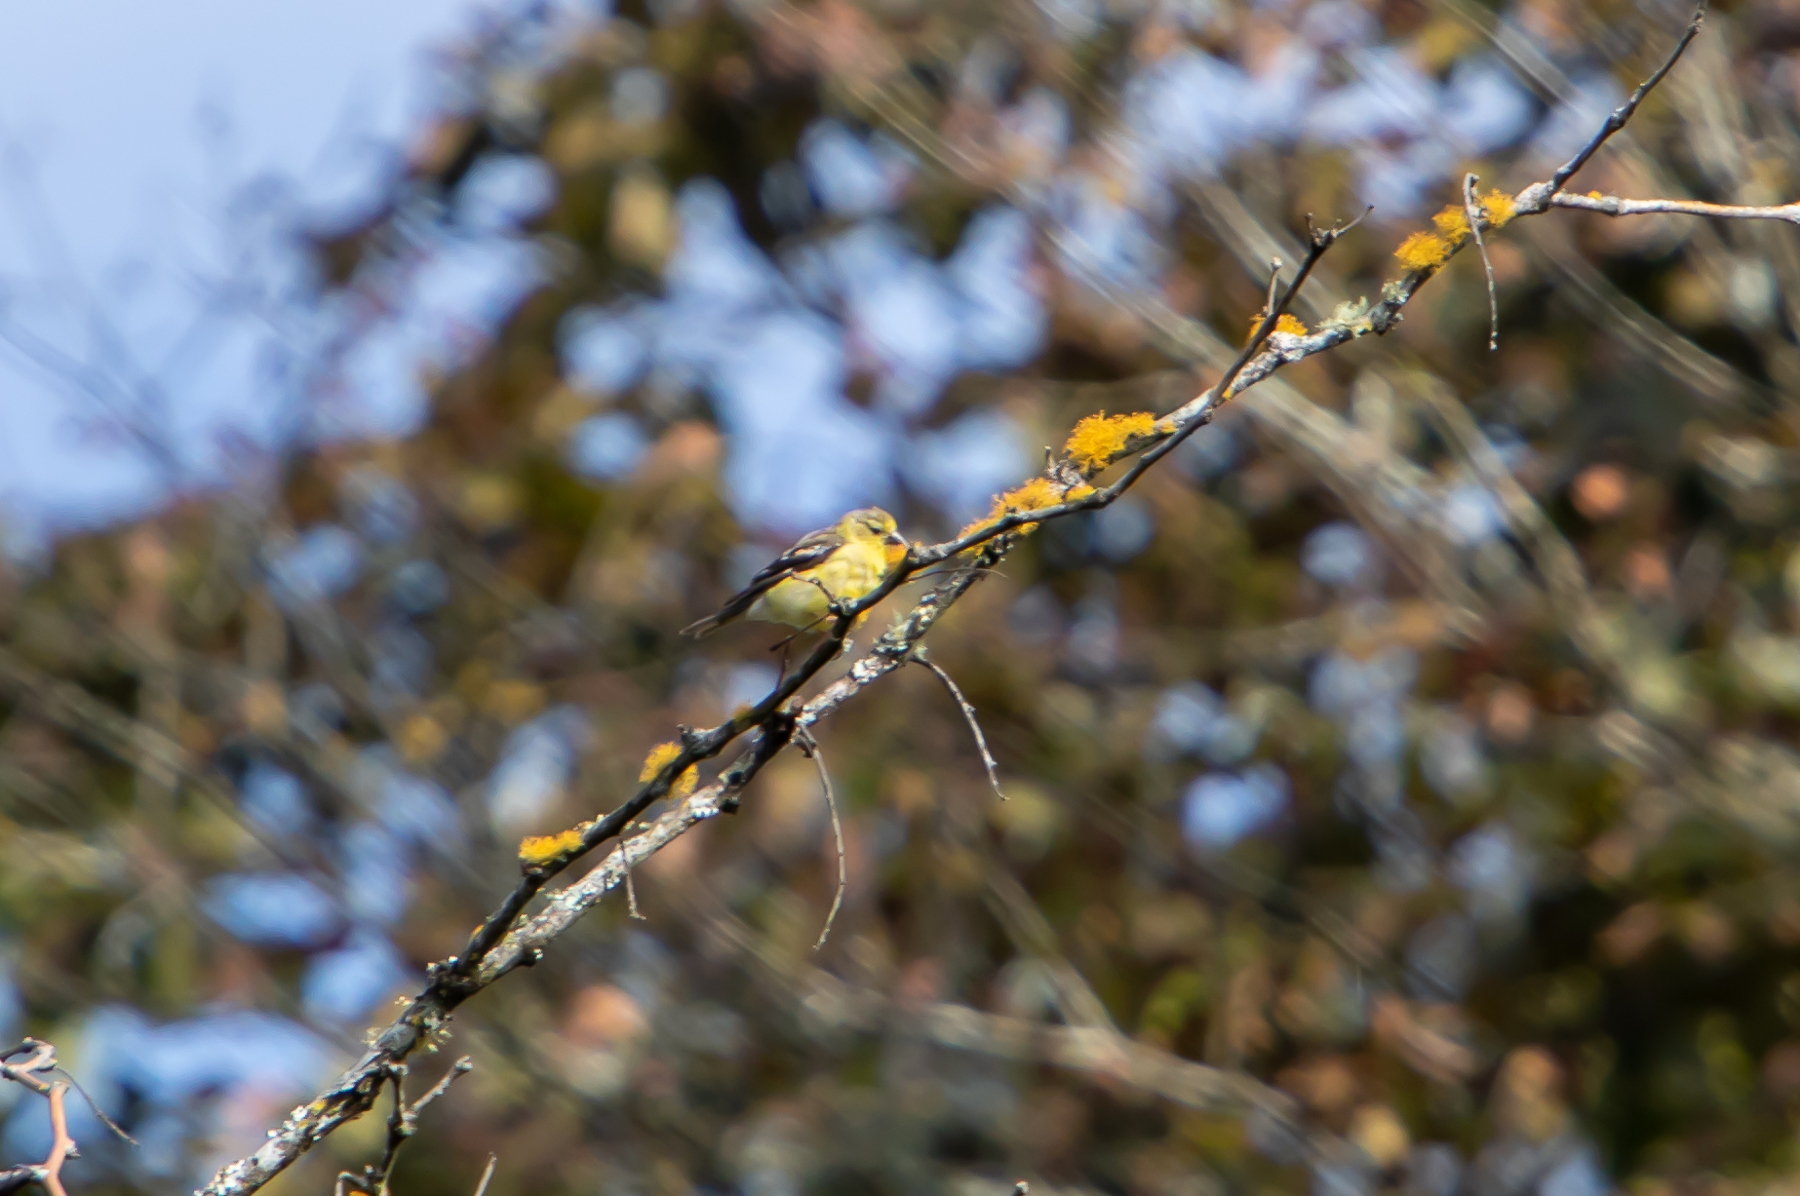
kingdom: Animalia
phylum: Chordata
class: Aves
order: Passeriformes
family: Fringillidae
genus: Spinus
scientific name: Spinus tristis
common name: American goldfinch
